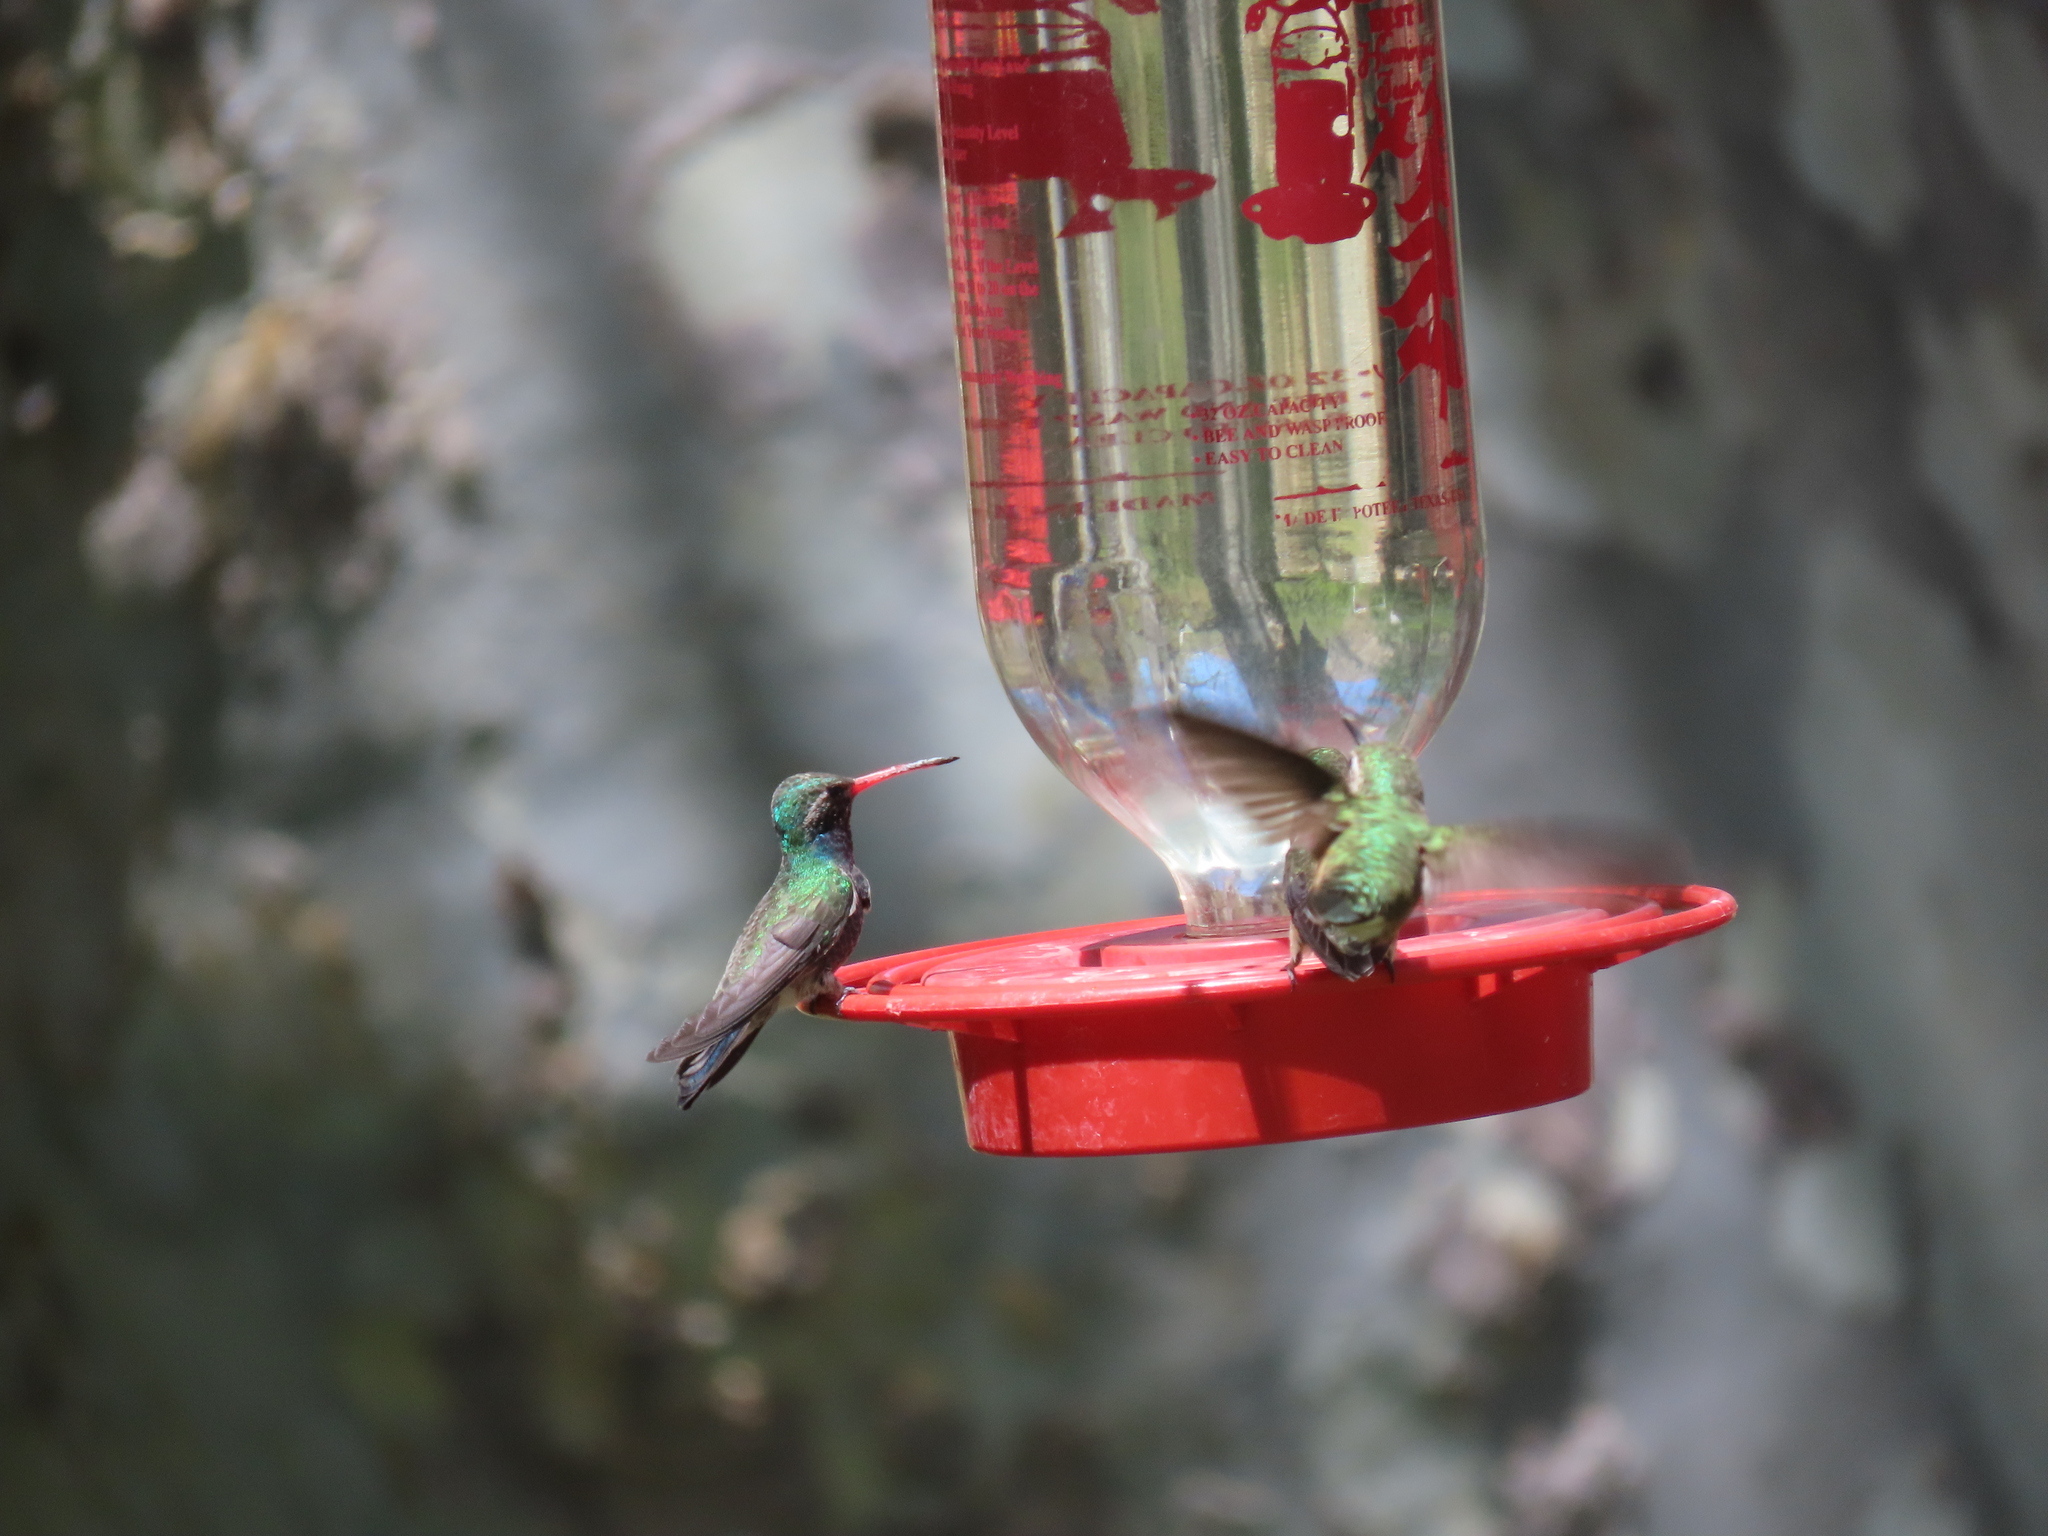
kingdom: Animalia
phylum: Chordata
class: Aves
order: Apodiformes
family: Trochilidae
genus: Cynanthus
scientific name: Cynanthus latirostris
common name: Broad-billed hummingbird
